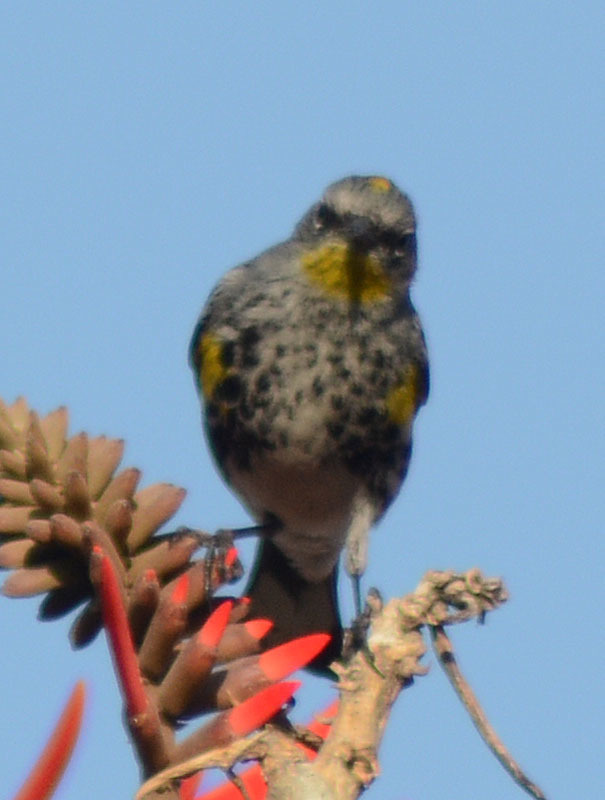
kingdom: Animalia
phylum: Chordata
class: Aves
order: Passeriformes
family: Parulidae
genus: Setophaga
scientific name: Setophaga auduboni
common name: Audubon's warbler
